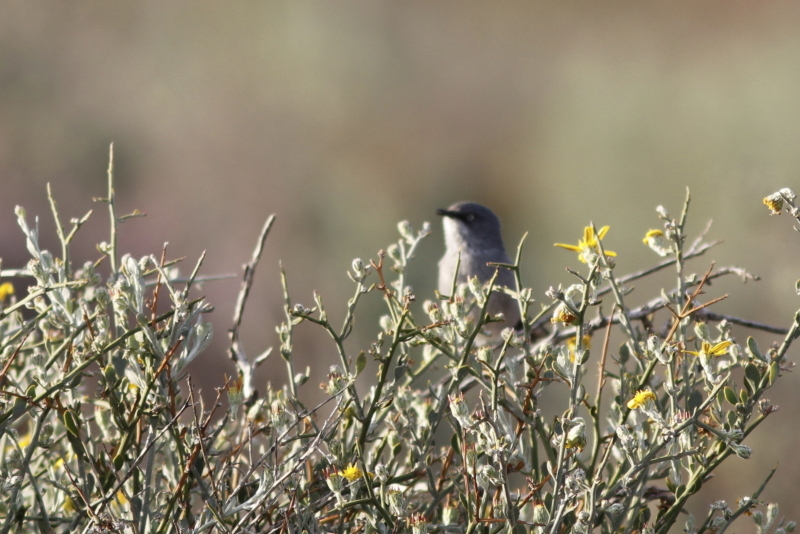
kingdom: Animalia
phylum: Chordata
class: Aves
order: Passeriformes
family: Sylviidae
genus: Sylvia
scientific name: Sylvia layardi
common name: Layard's warbler
